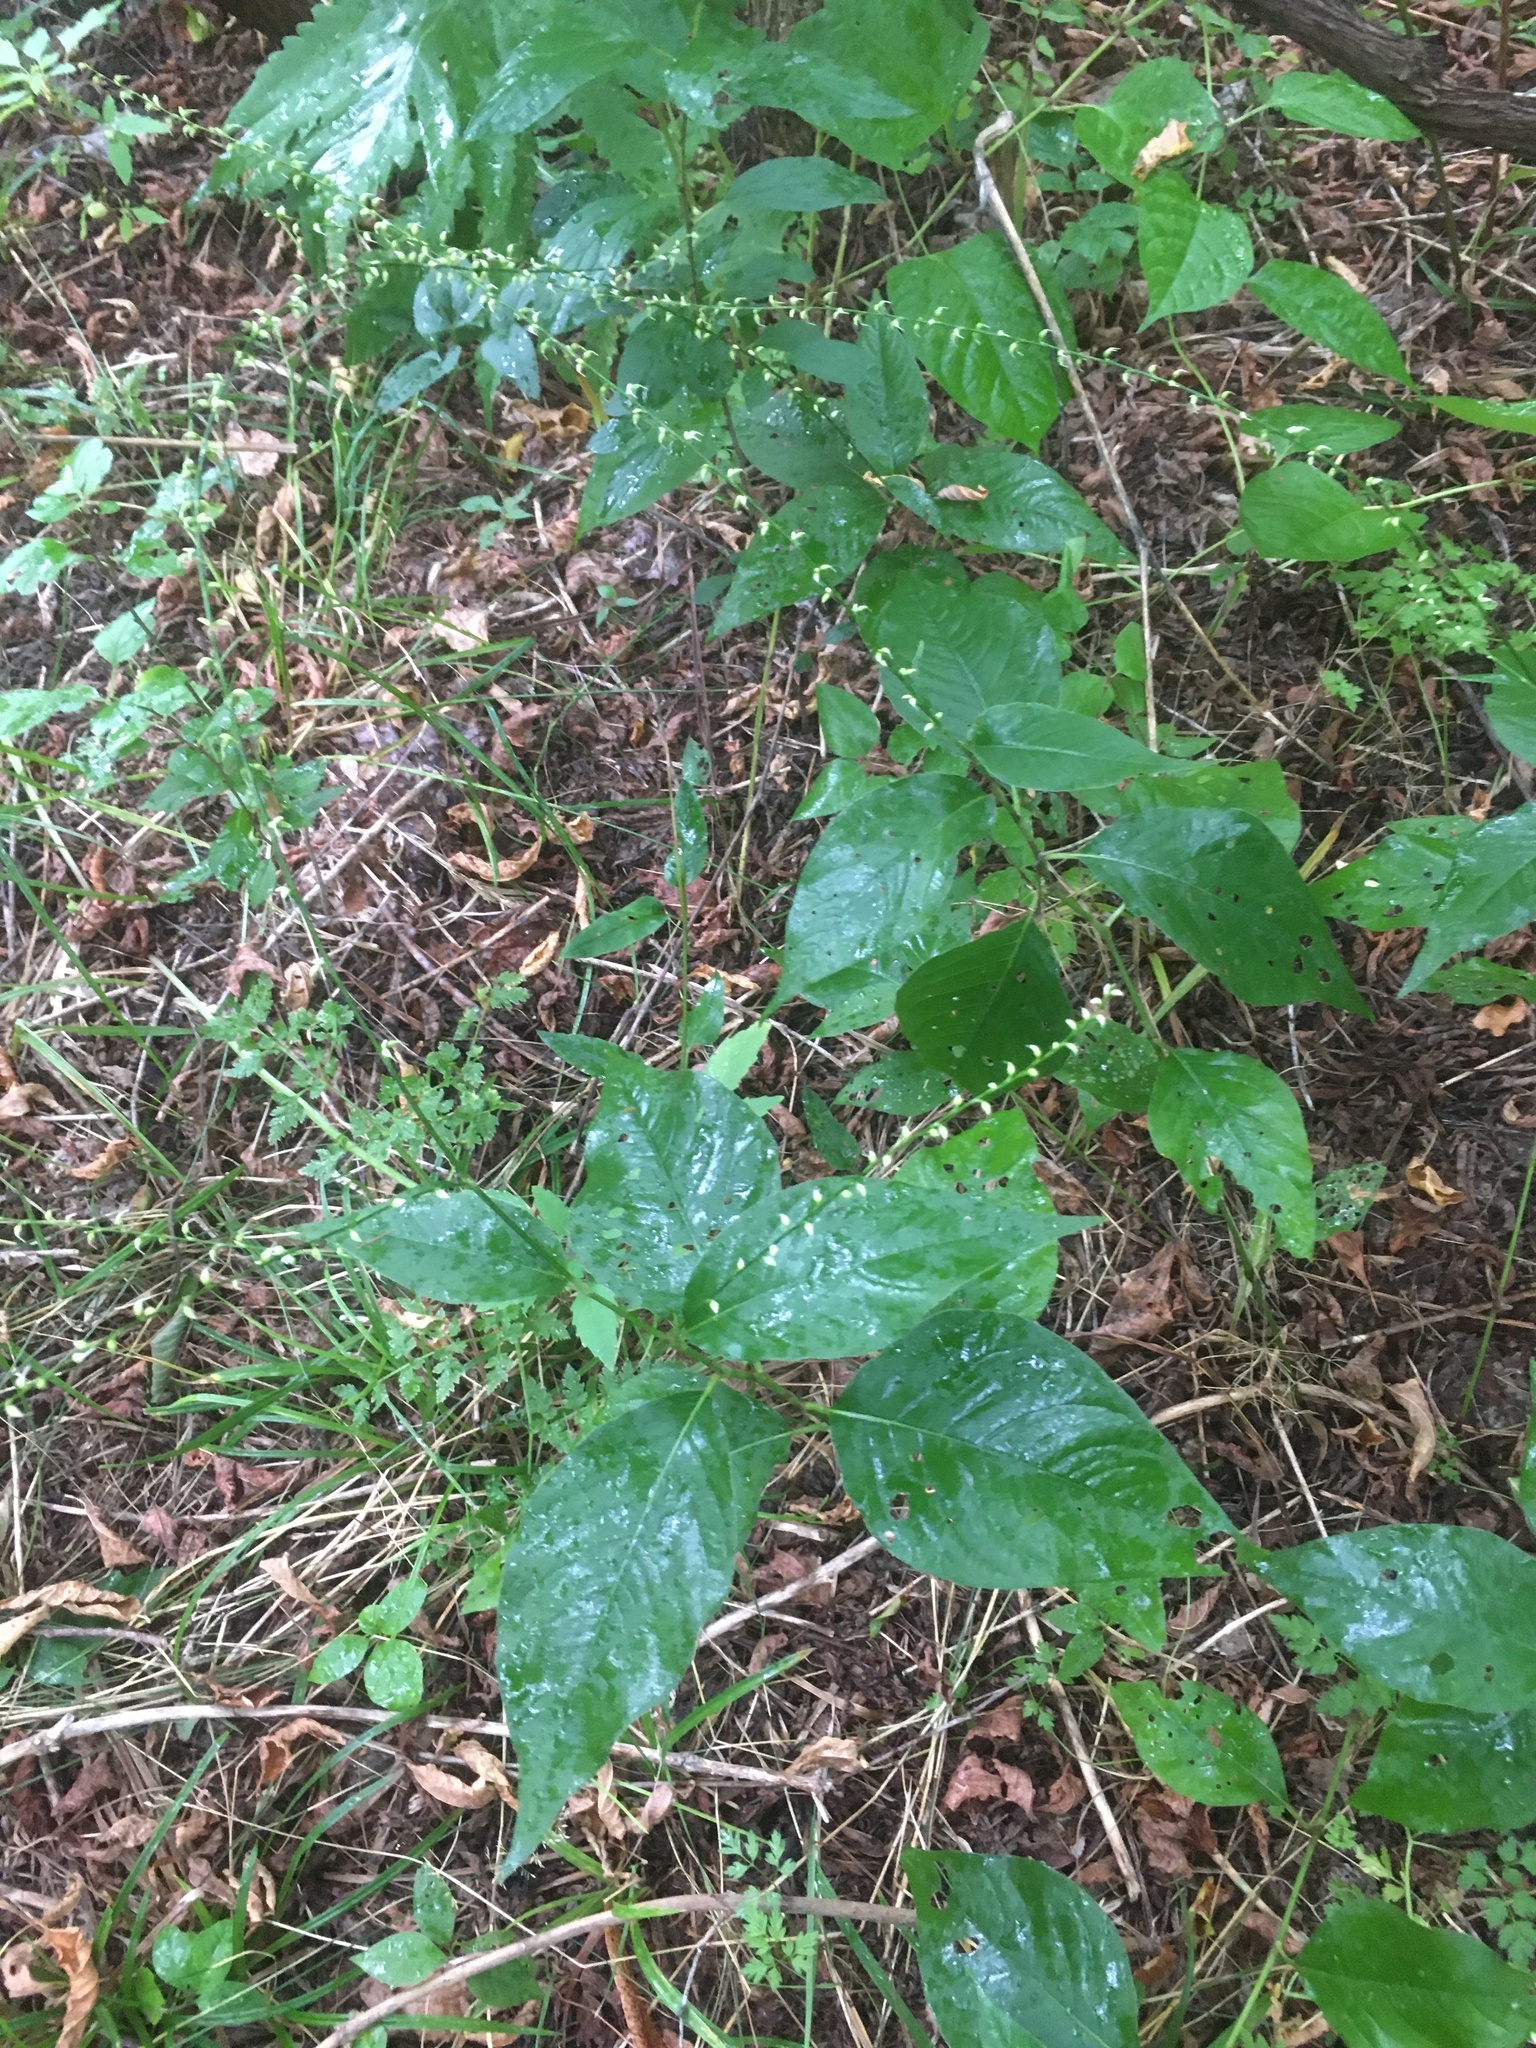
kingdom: Plantae
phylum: Tracheophyta
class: Magnoliopsida
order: Caryophyllales
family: Polygonaceae
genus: Persicaria
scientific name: Persicaria virginiana
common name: Jumpseed
